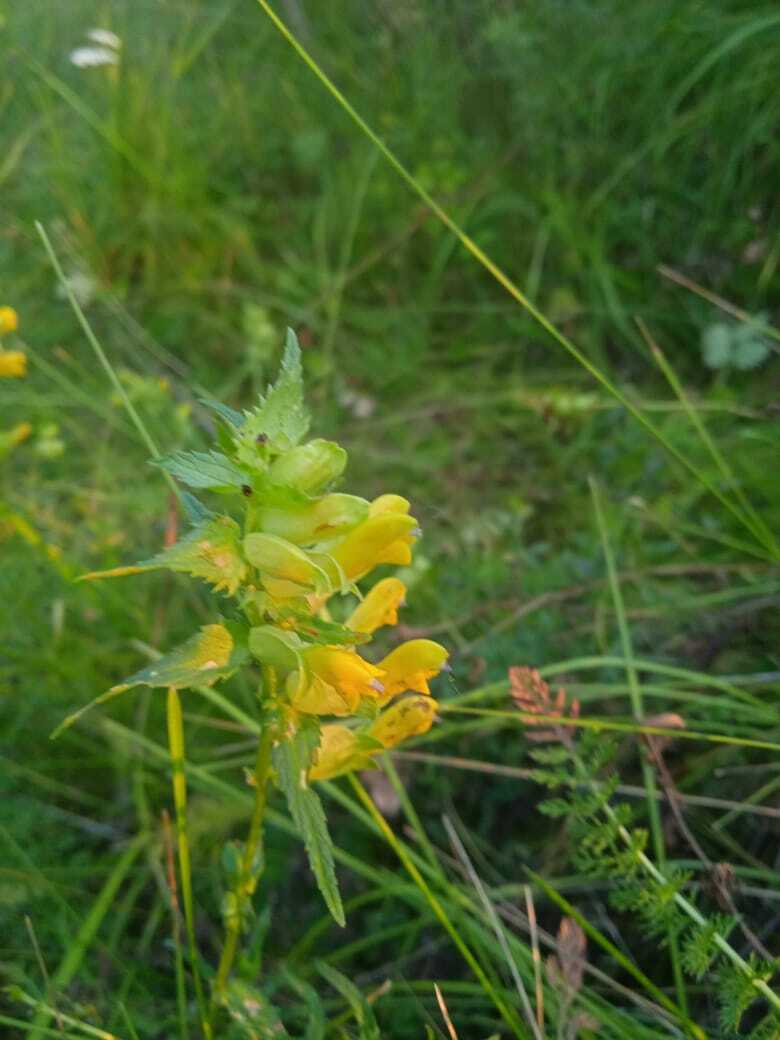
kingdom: Plantae
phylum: Tracheophyta
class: Magnoliopsida
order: Lamiales
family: Orobanchaceae
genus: Rhinanthus
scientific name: Rhinanthus serotinus
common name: Late-flowering yellow rattle
